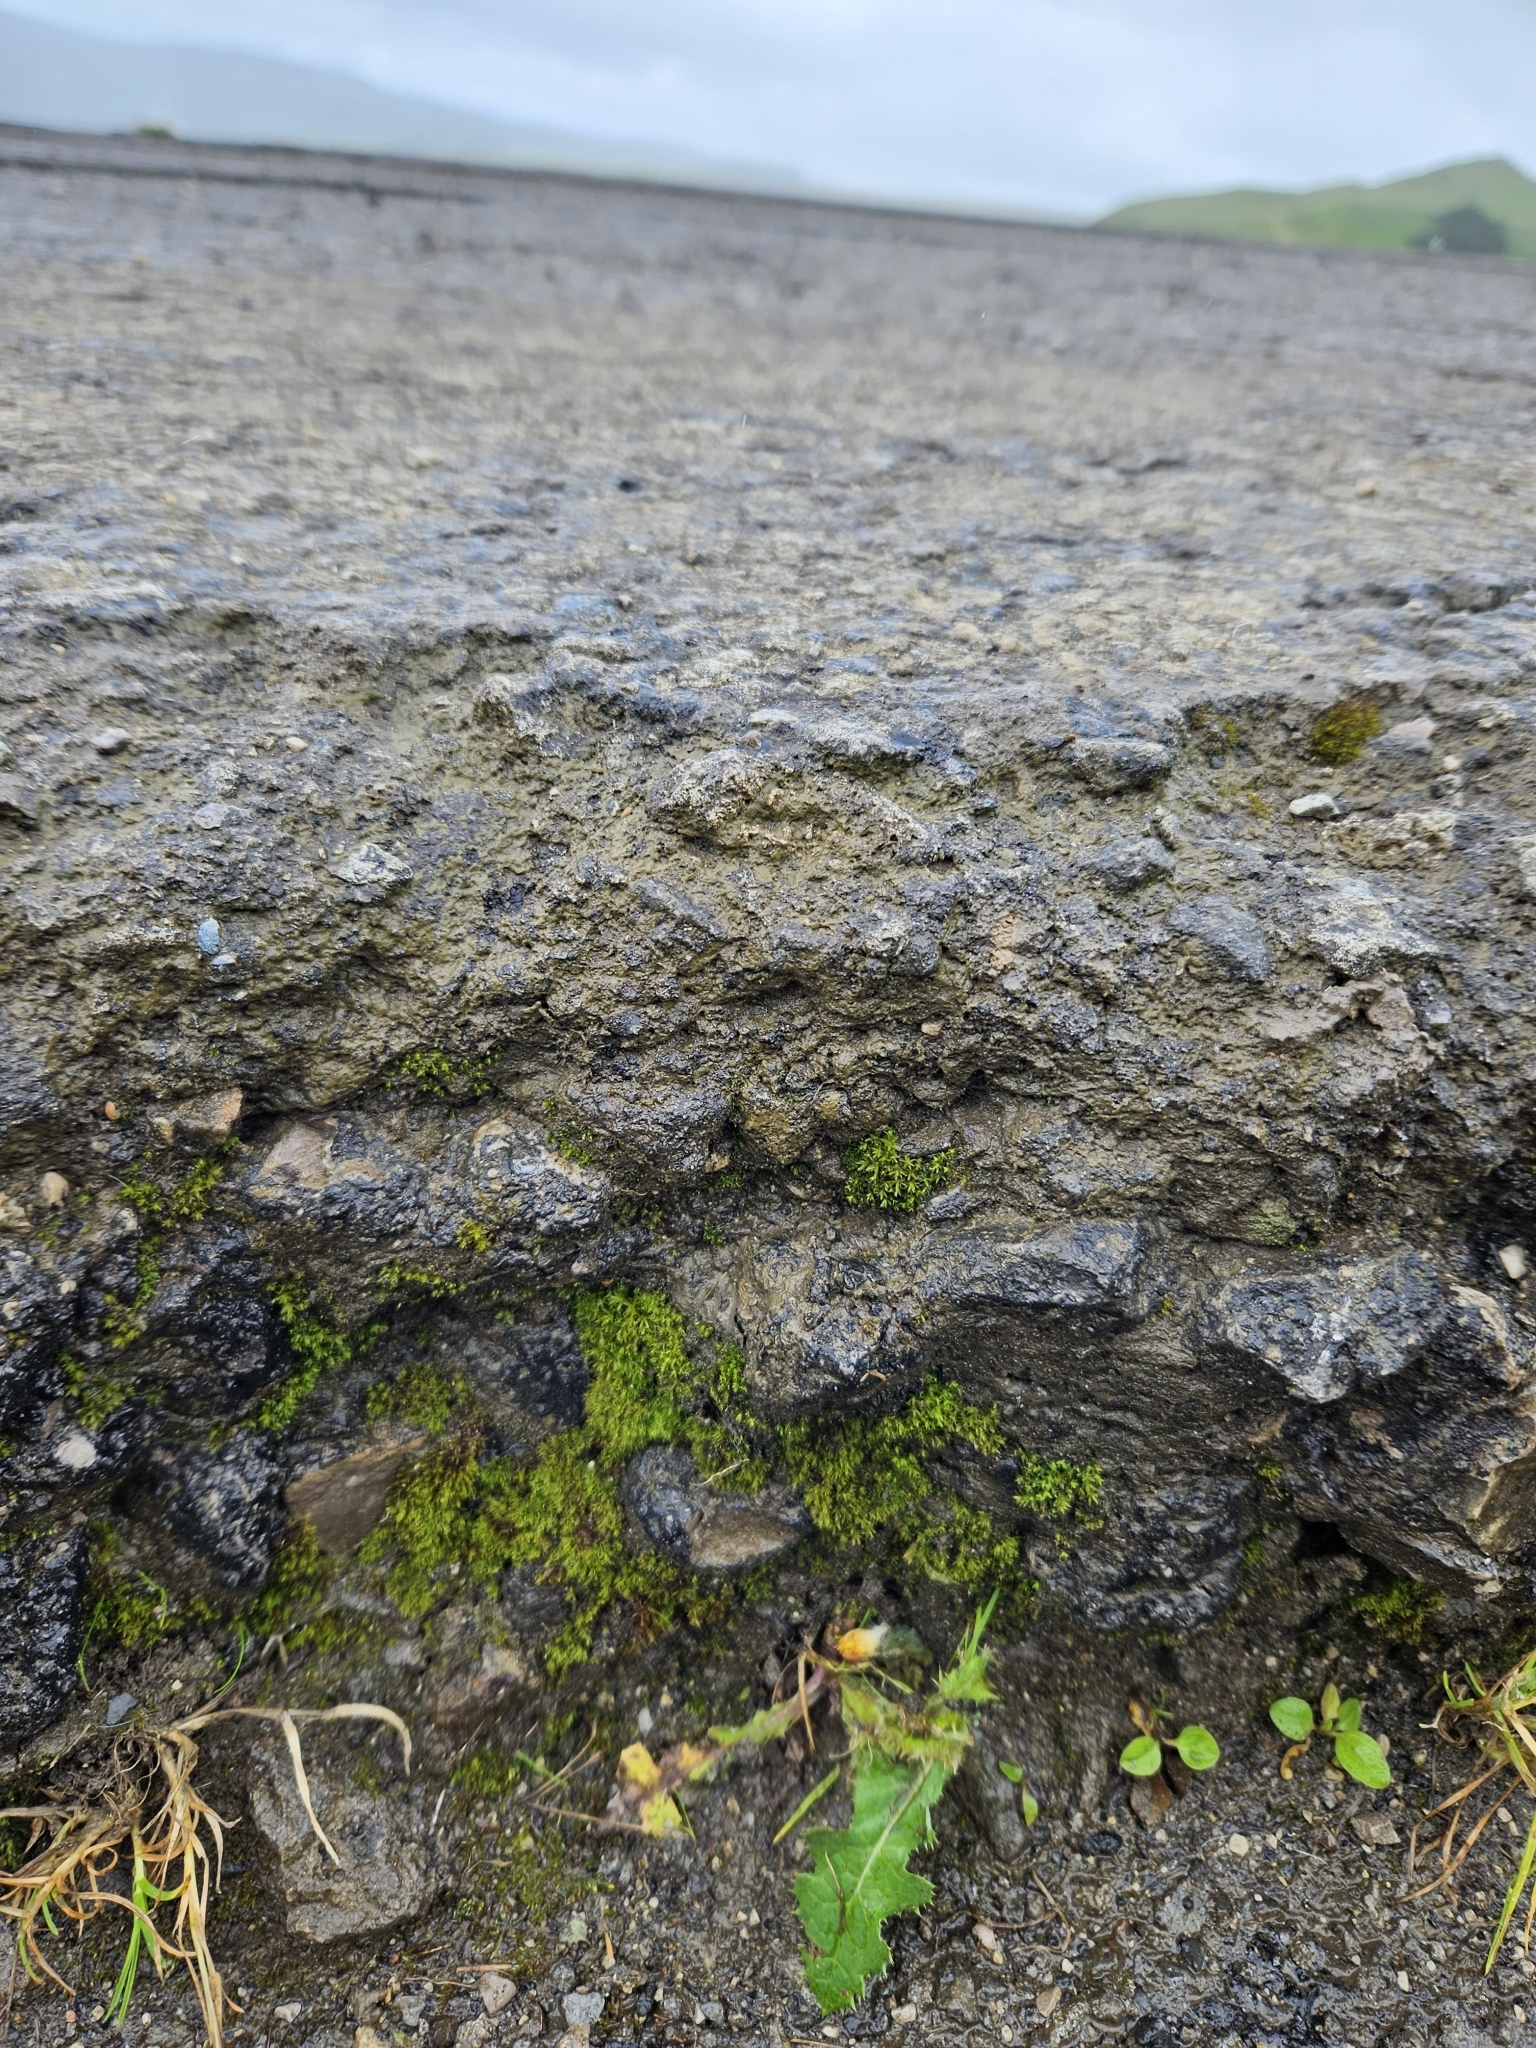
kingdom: Plantae
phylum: Bryophyta
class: Bryopsida
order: Dicranales
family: Dicranellaceae
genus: Dicranella
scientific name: Dicranella howei
